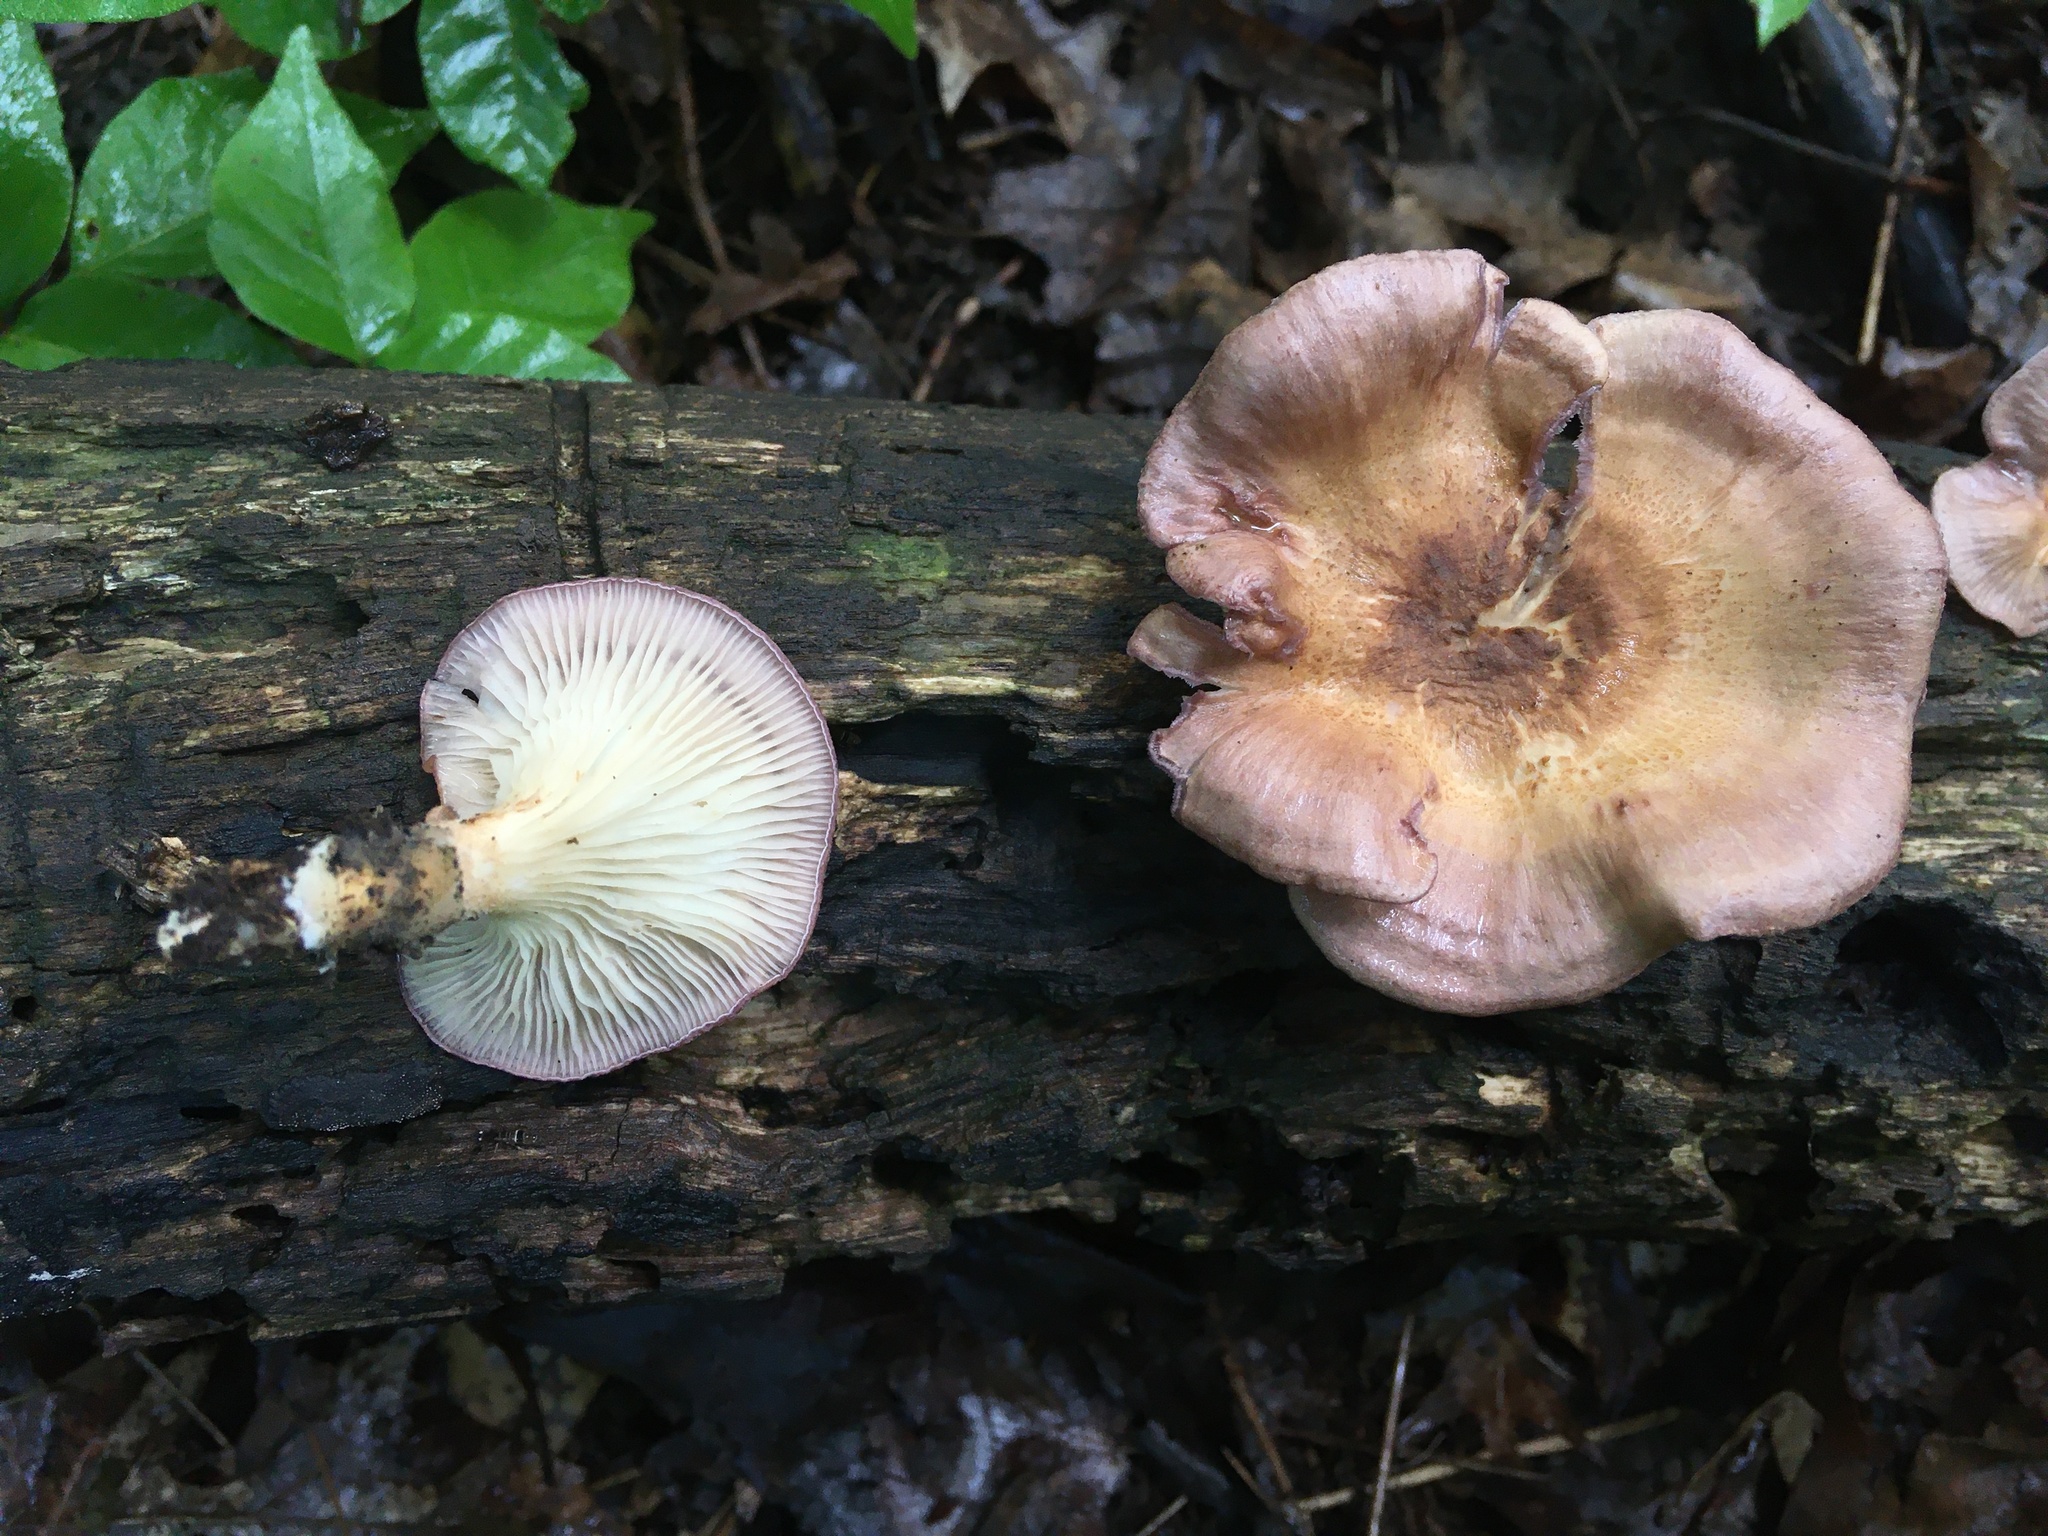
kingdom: Fungi
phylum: Basidiomycota
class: Agaricomycetes
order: Polyporales
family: Panaceae
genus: Panus
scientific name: Panus conchatus
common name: Lilac oysterling
